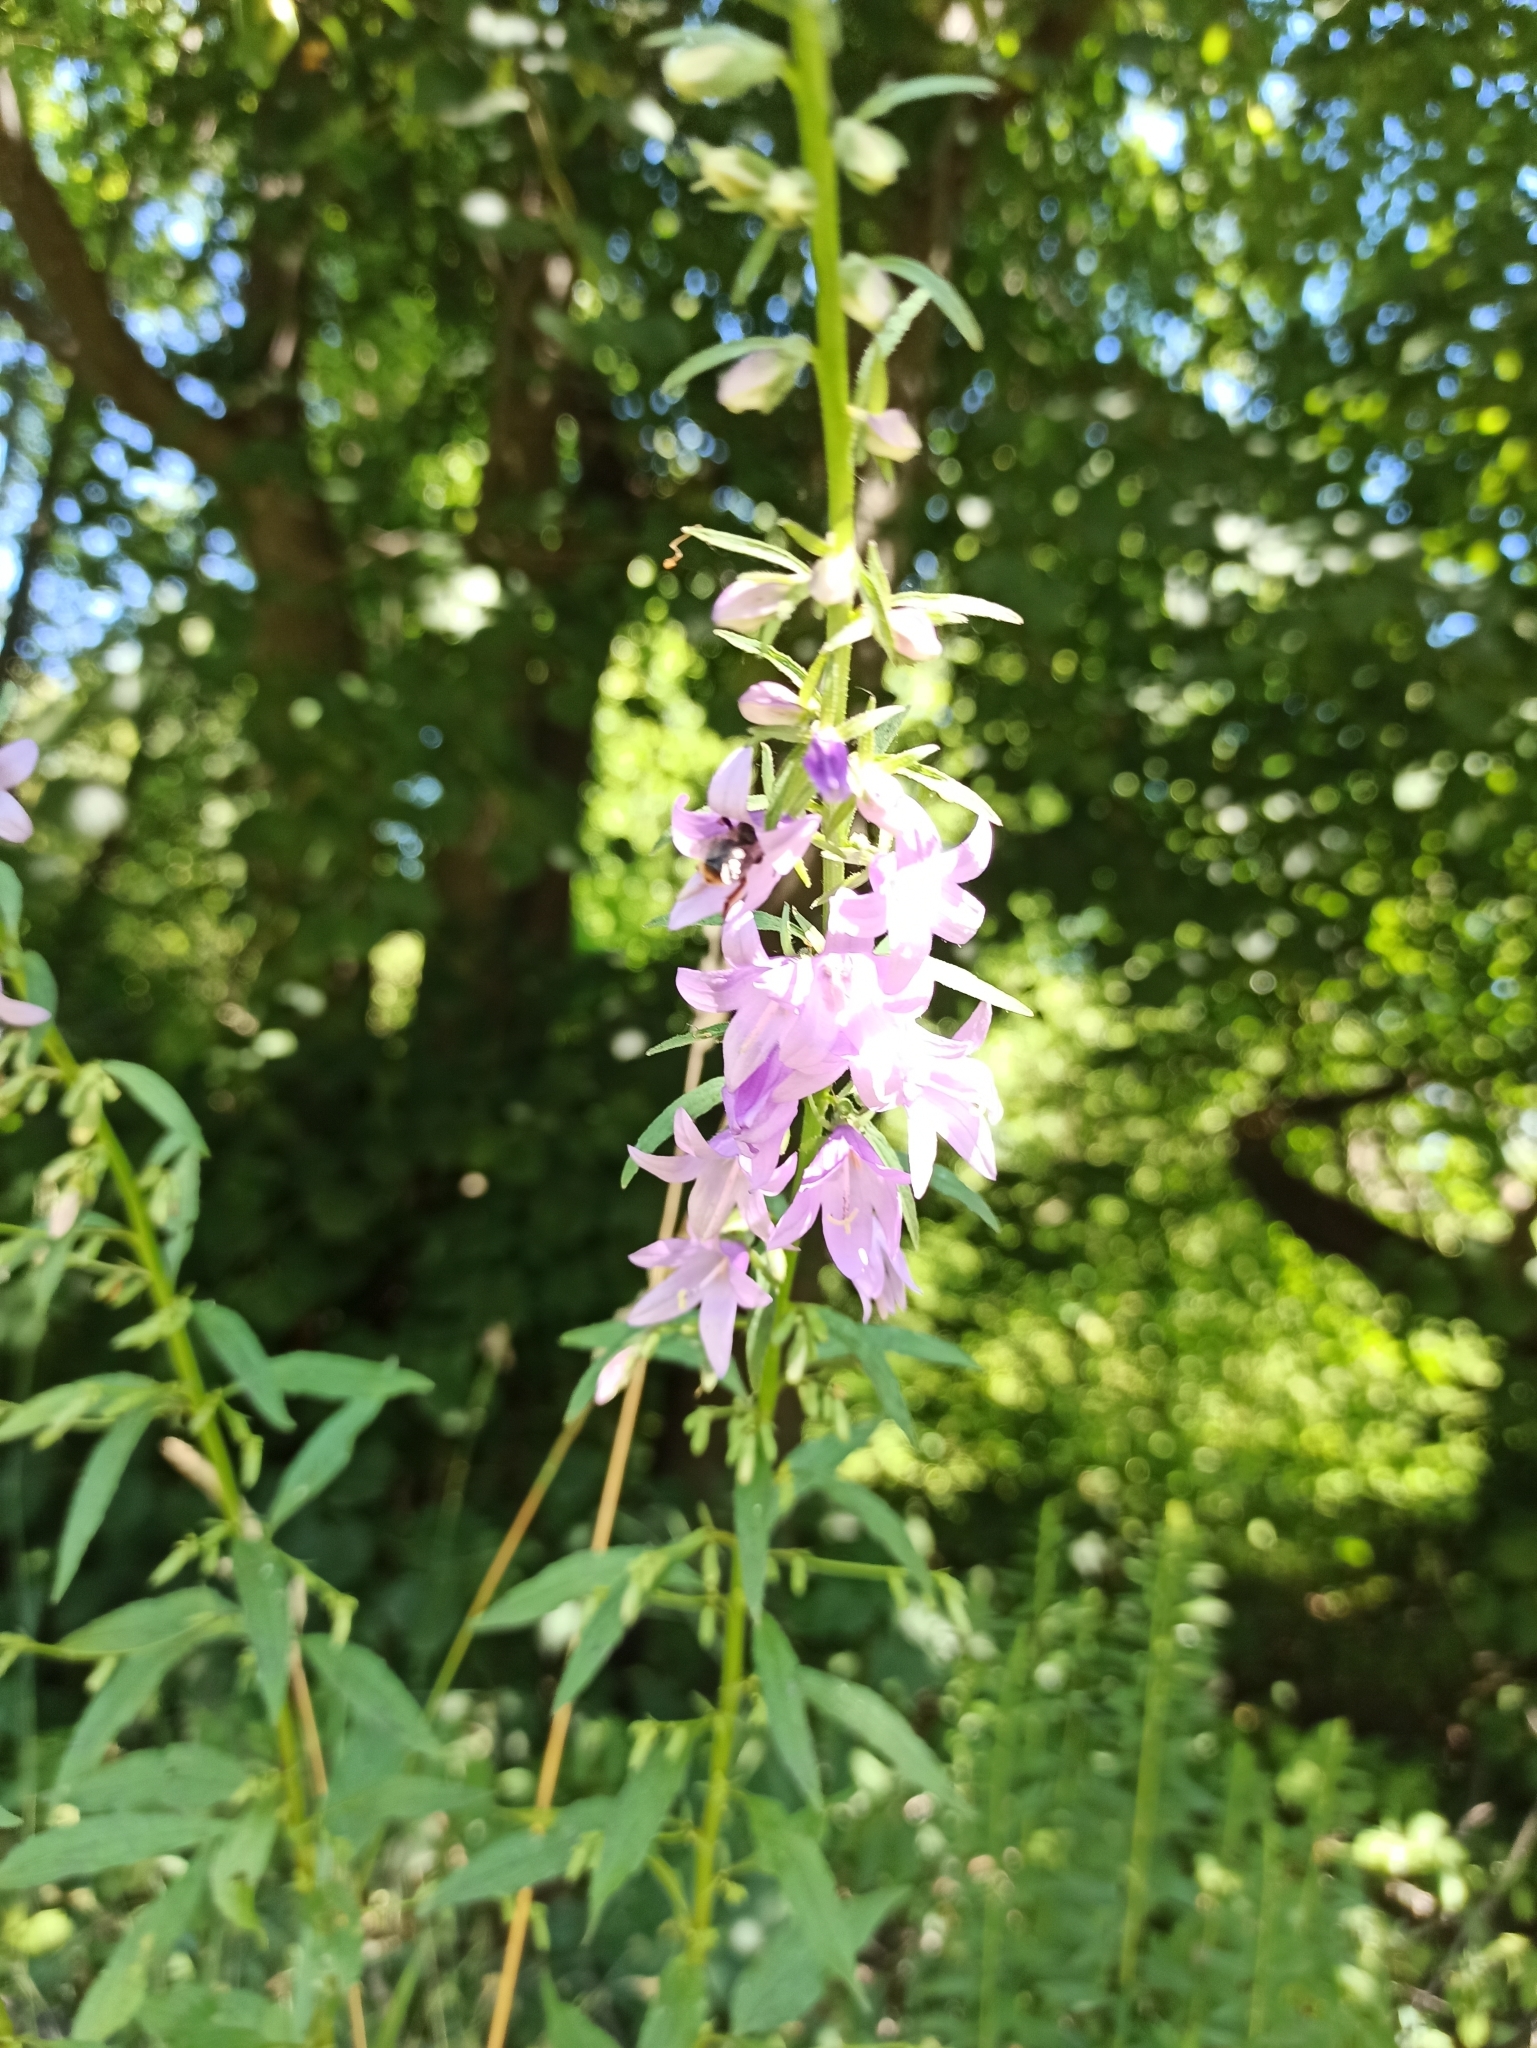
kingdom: Plantae
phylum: Tracheophyta
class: Magnoliopsida
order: Asterales
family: Campanulaceae
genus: Campanula
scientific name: Campanula rapunculoides
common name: Creeping bellflower
